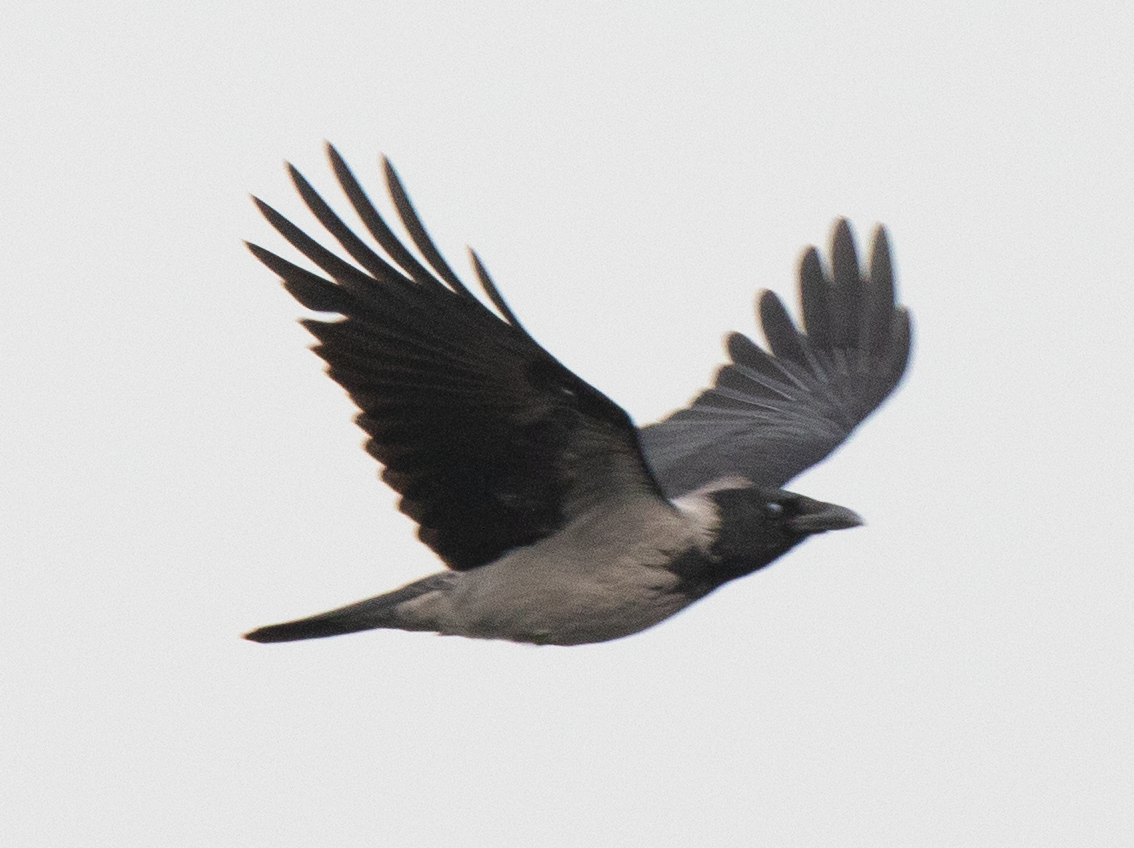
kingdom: Animalia
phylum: Chordata
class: Aves
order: Passeriformes
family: Corvidae
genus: Corvus
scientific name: Corvus cornix
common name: Hooded crow
